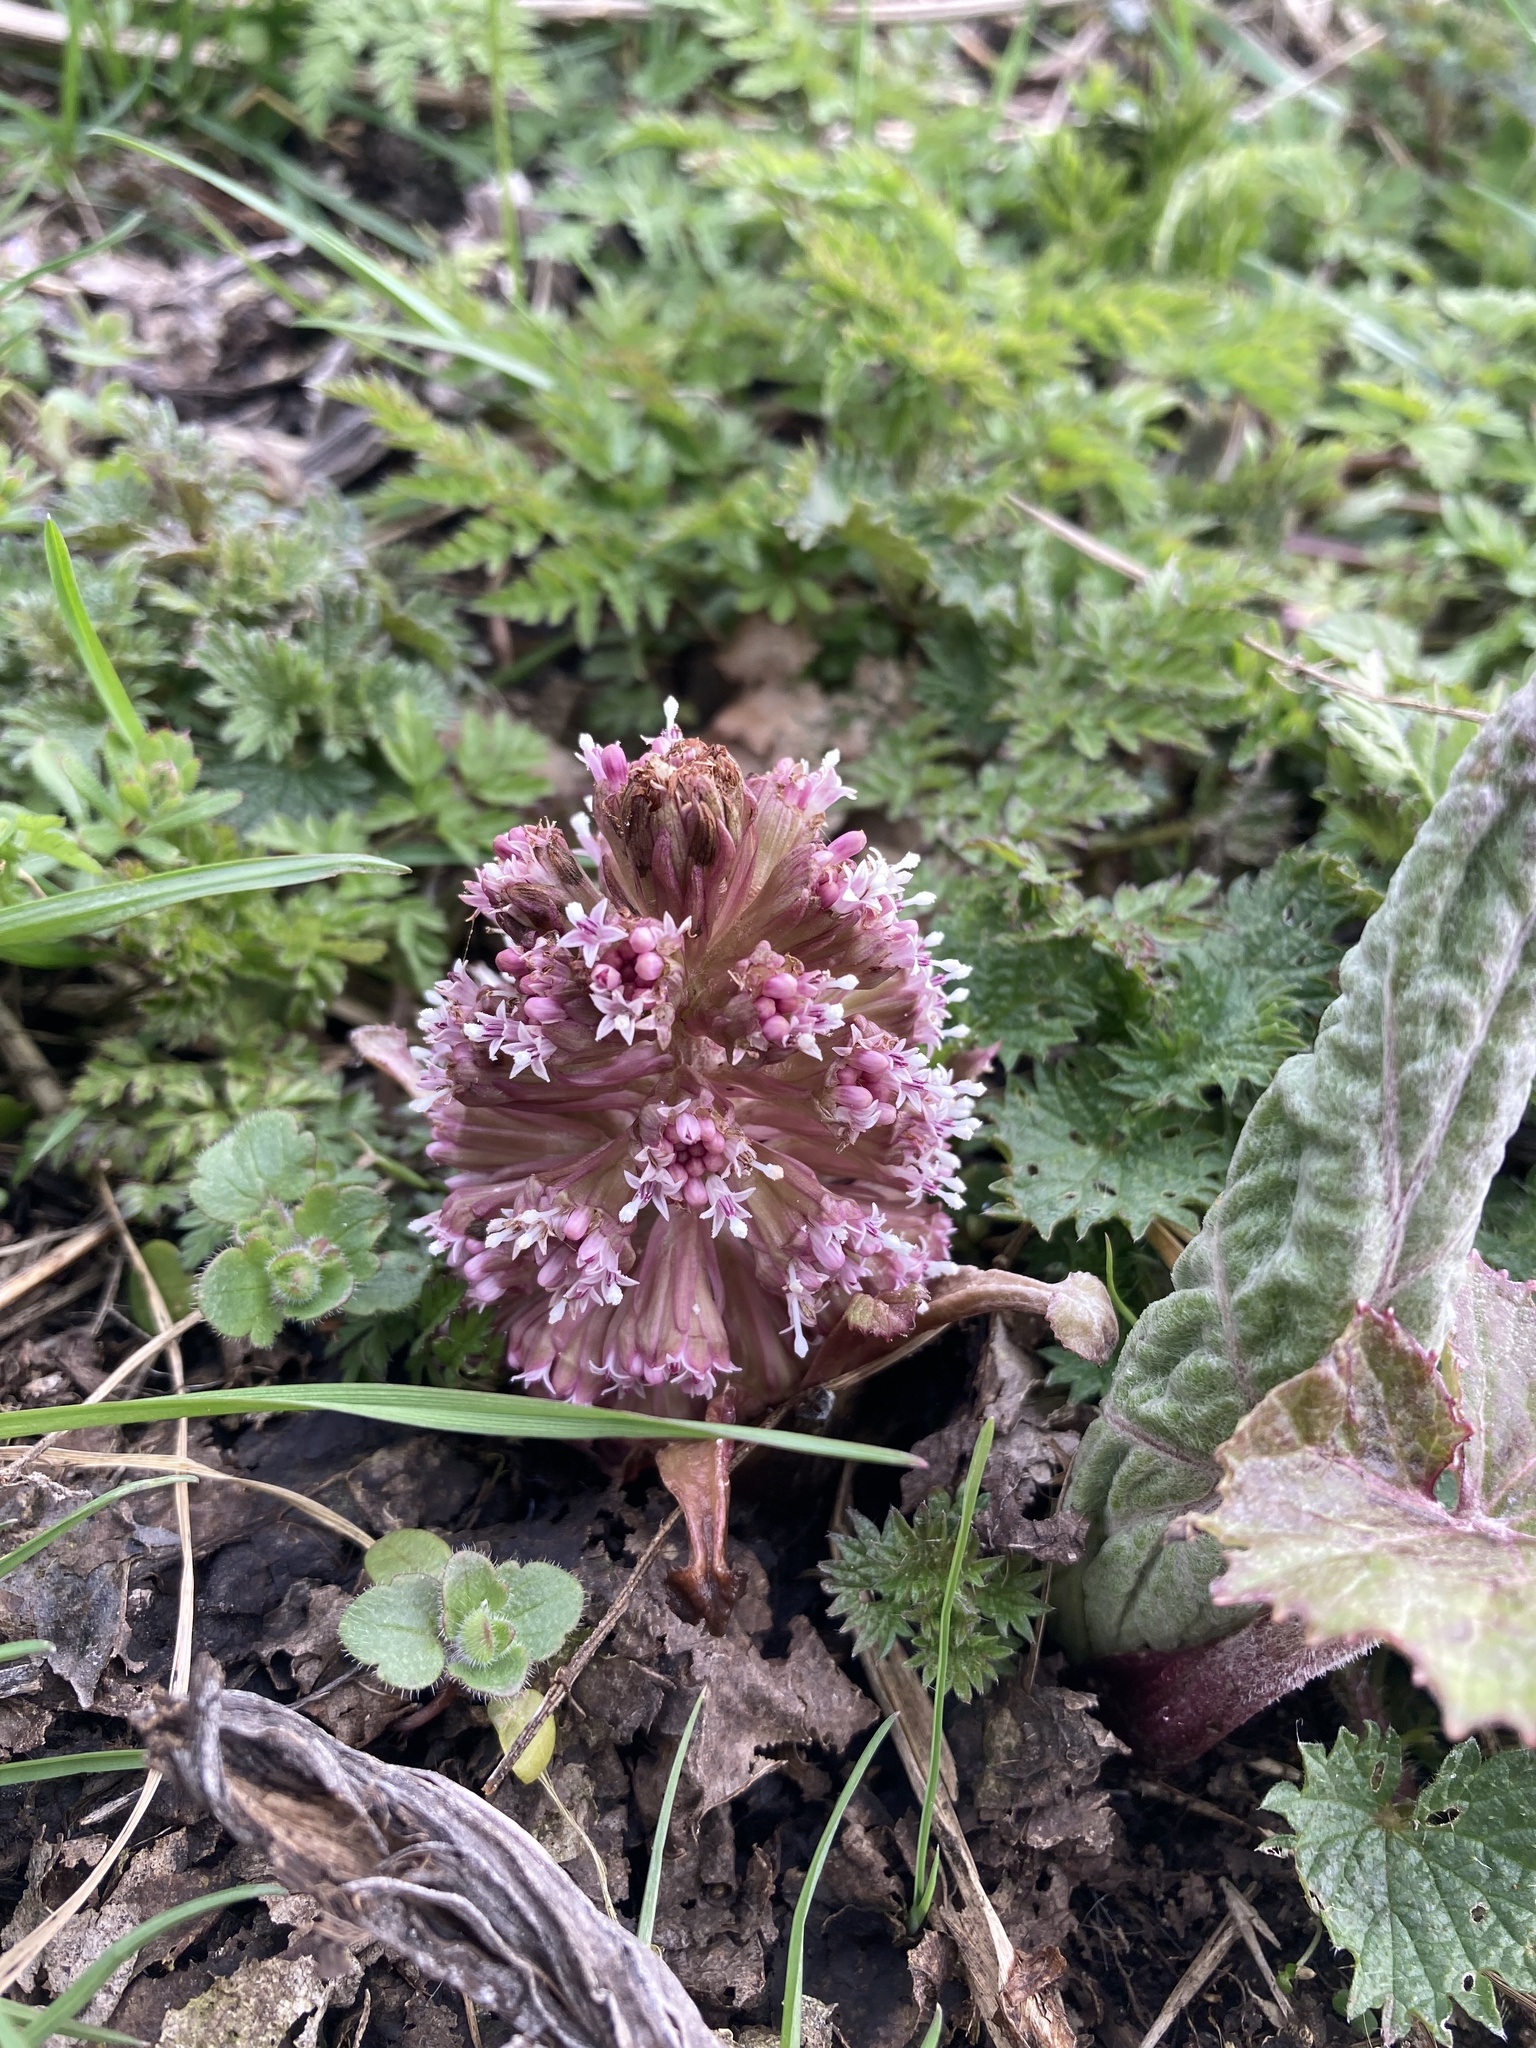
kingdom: Plantae
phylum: Tracheophyta
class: Magnoliopsida
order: Asterales
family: Asteraceae
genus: Petasites
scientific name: Petasites hybridus
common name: Butterbur
